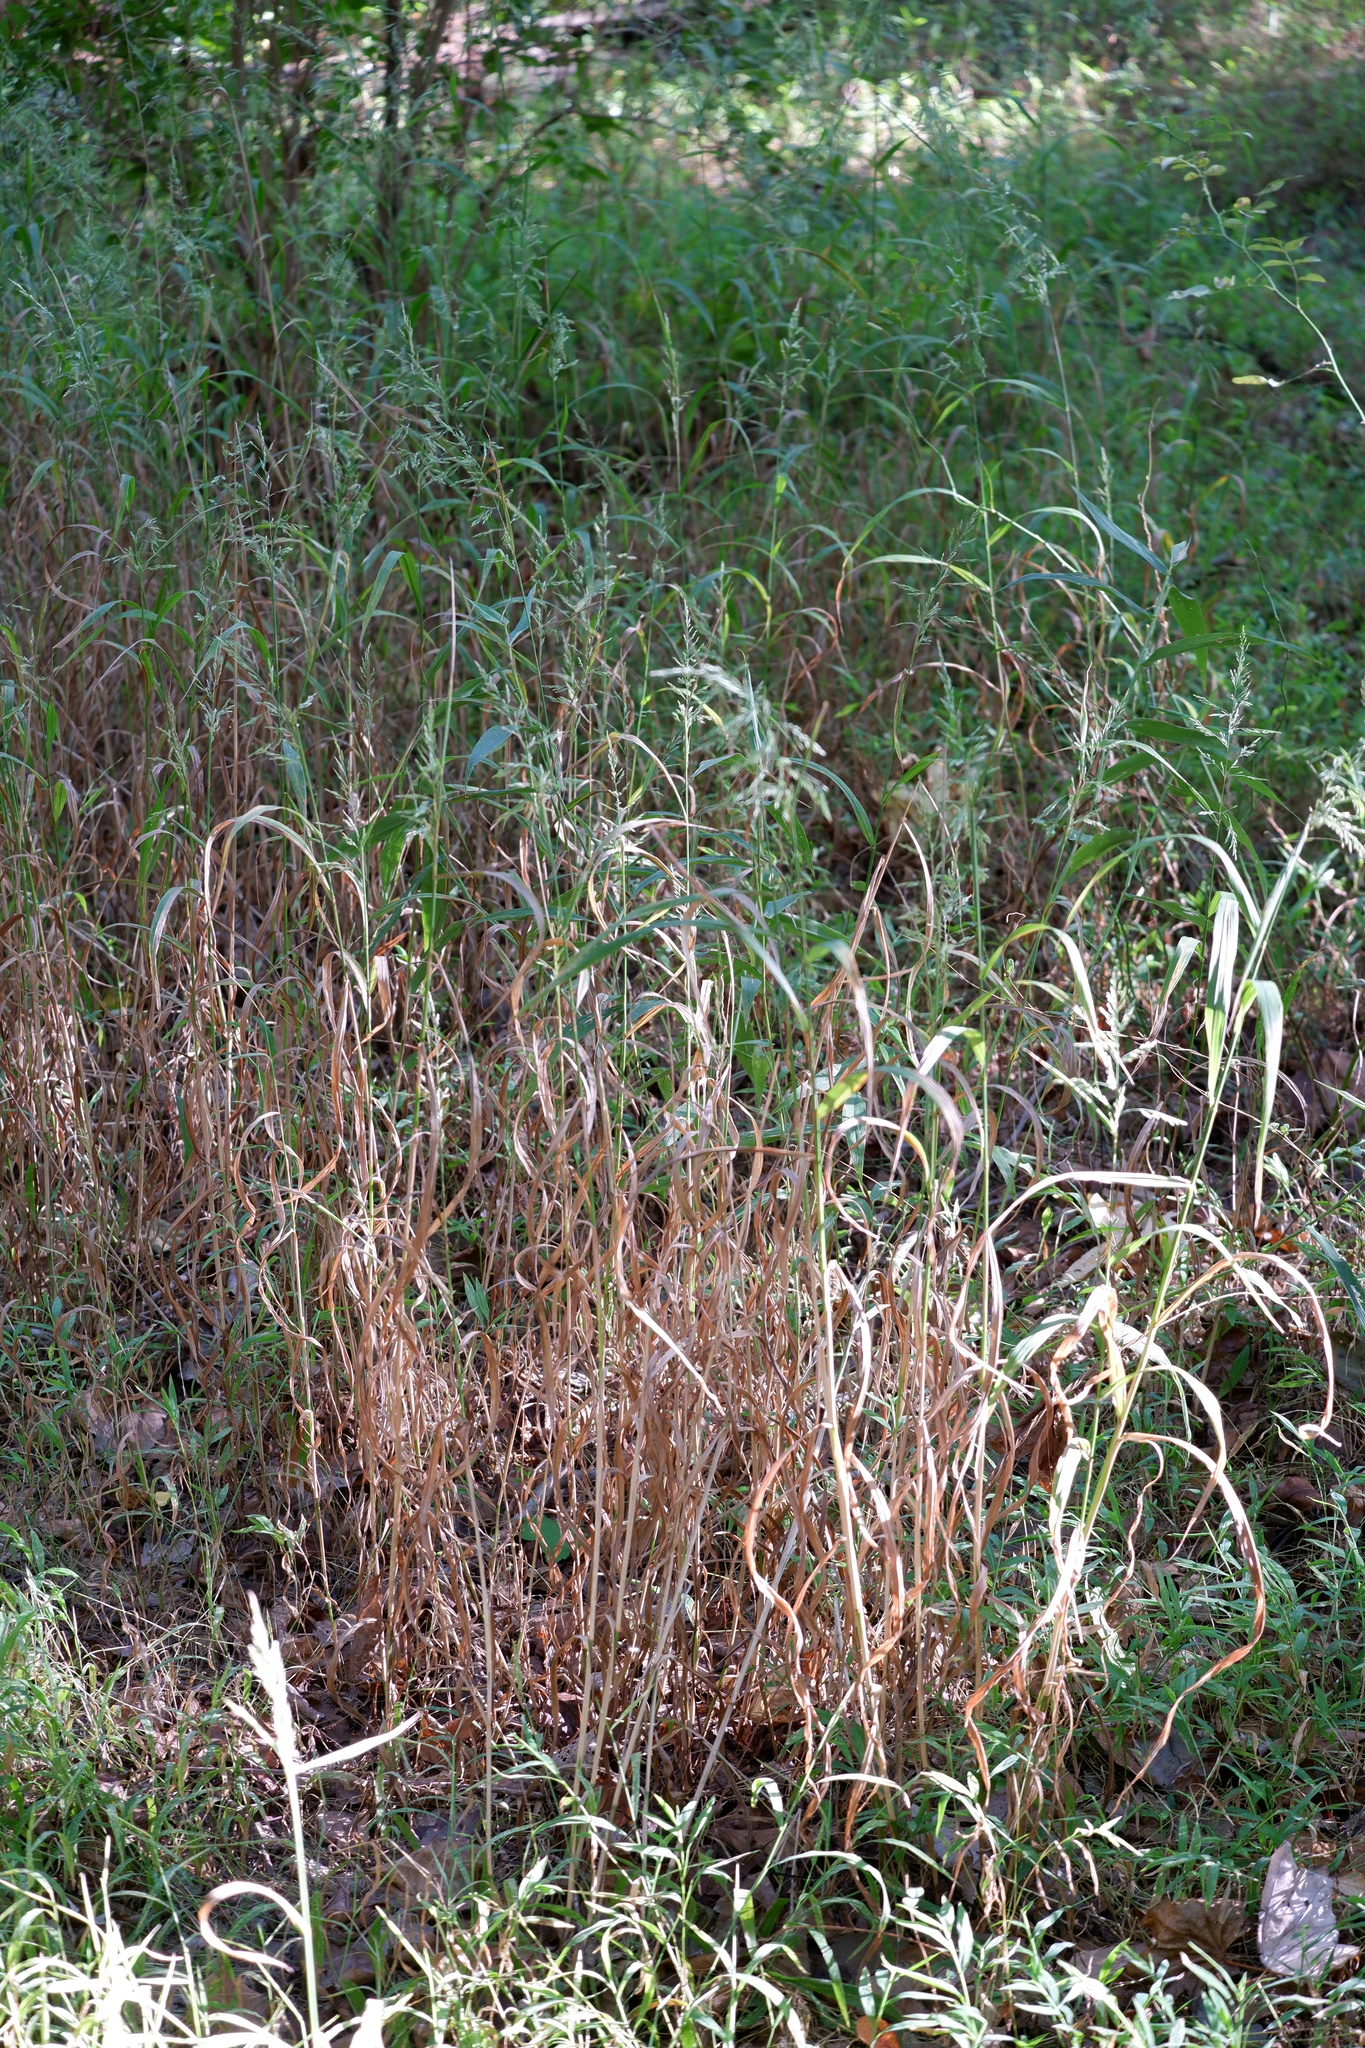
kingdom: Plantae
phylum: Tracheophyta
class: Liliopsida
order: Poales
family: Poaceae
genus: Cinna
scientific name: Cinna arundinacea
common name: Stout woodreed
